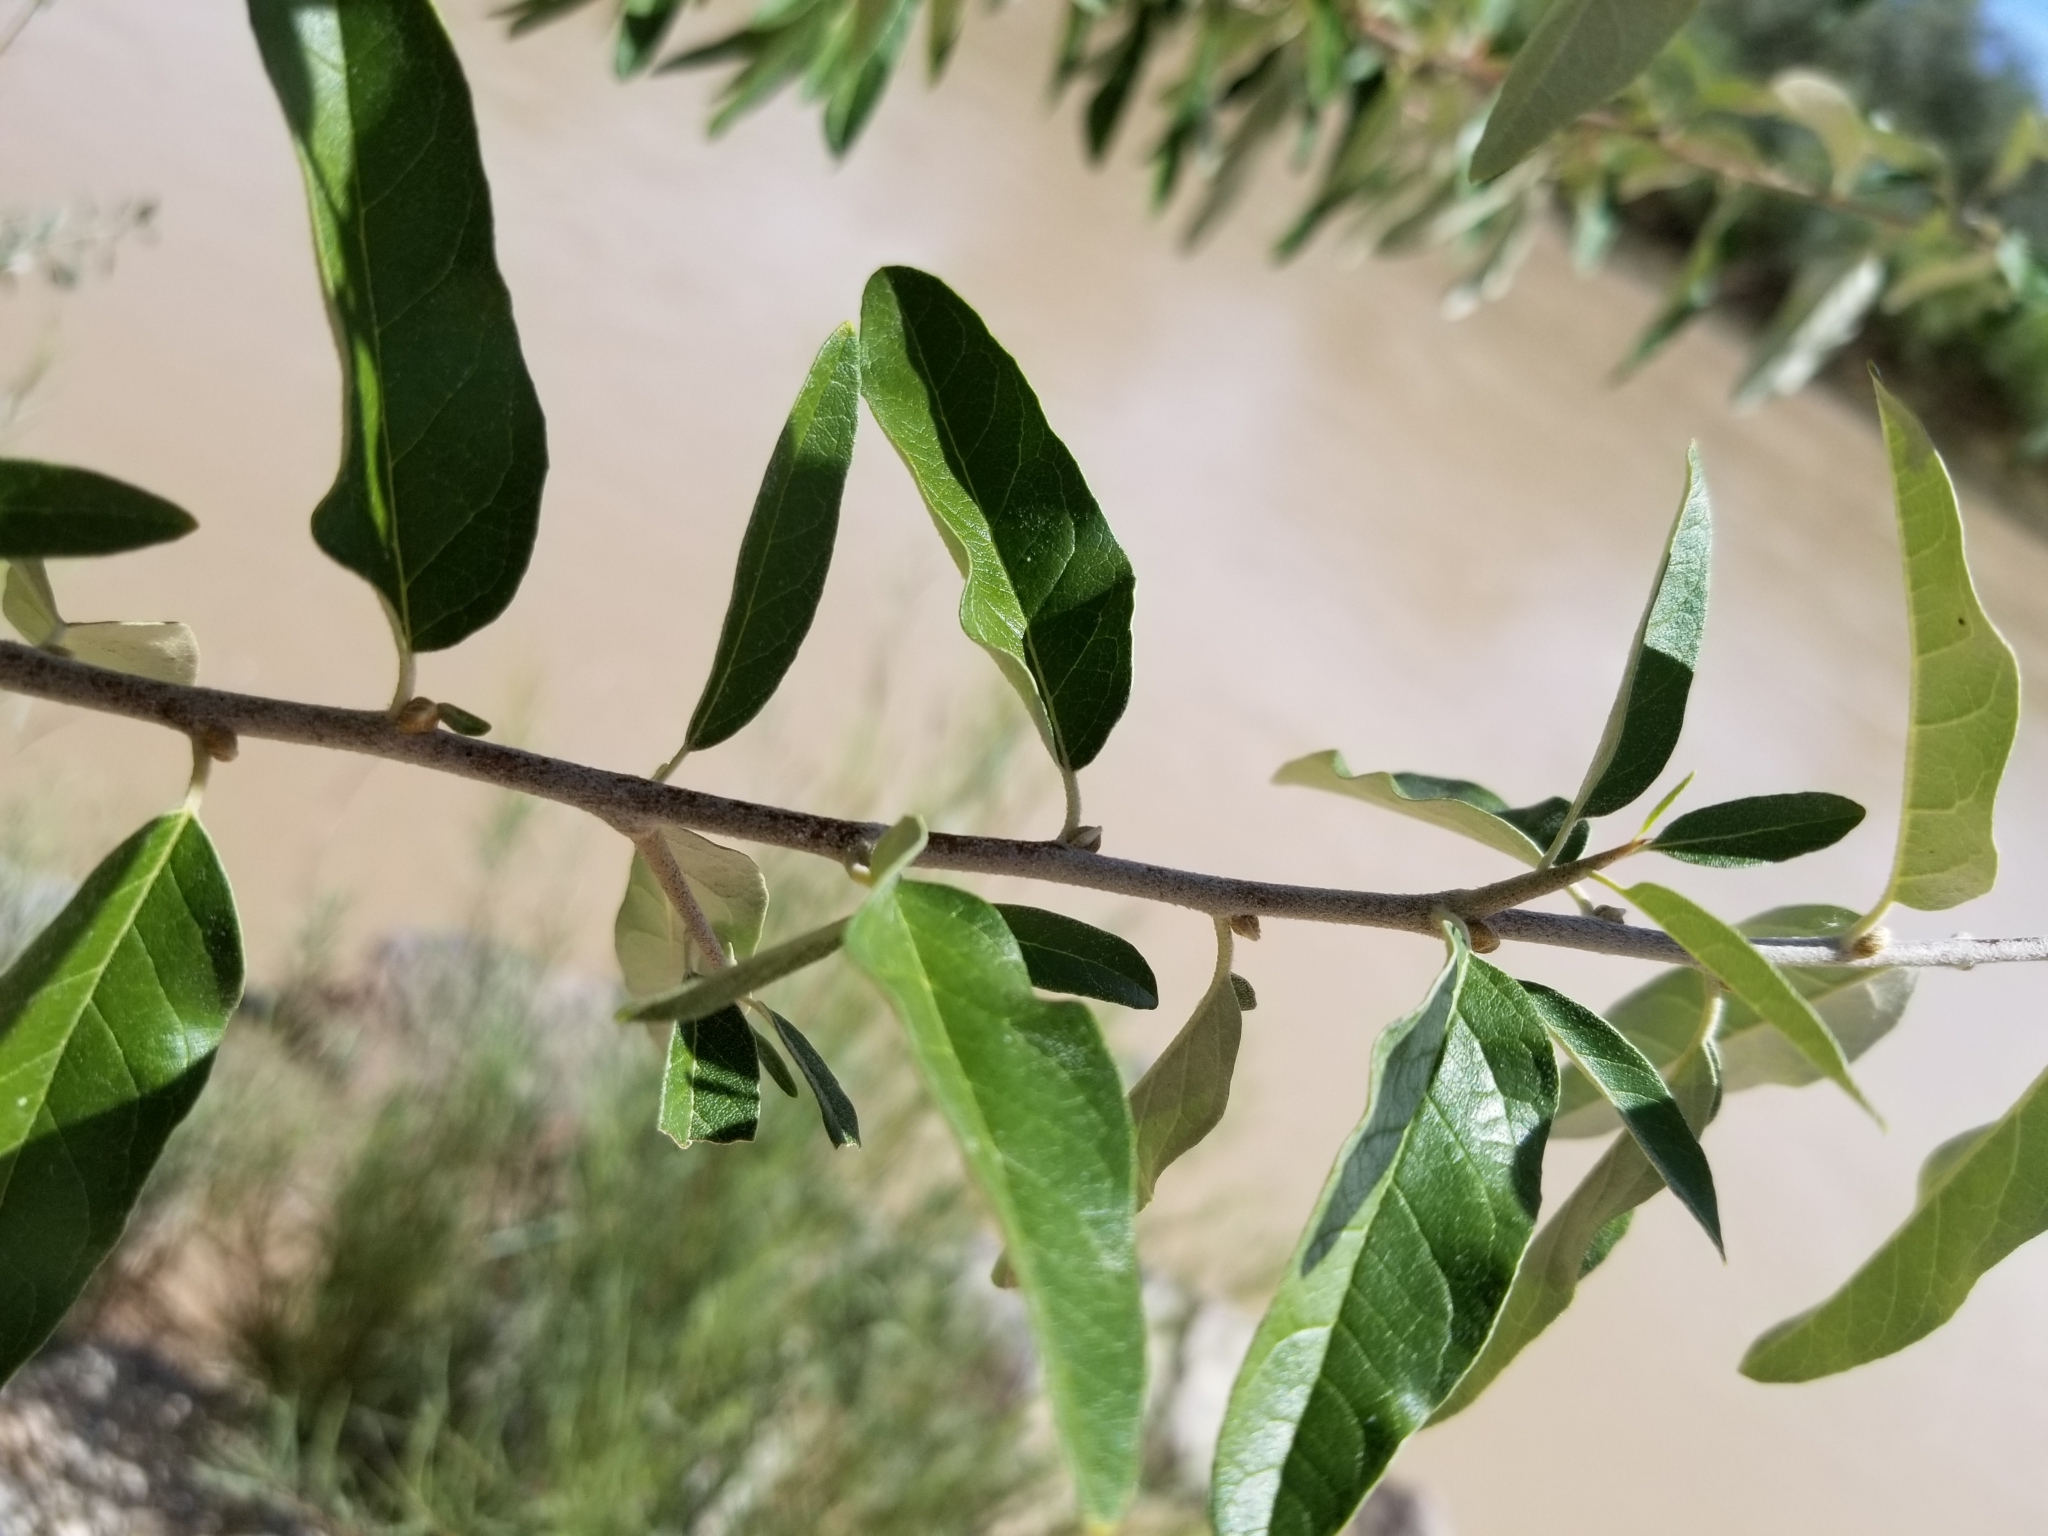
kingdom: Plantae
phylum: Tracheophyta
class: Magnoliopsida
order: Malpighiales
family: Salicaceae
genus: Salix
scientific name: Salix exigua
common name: Coyote willow
